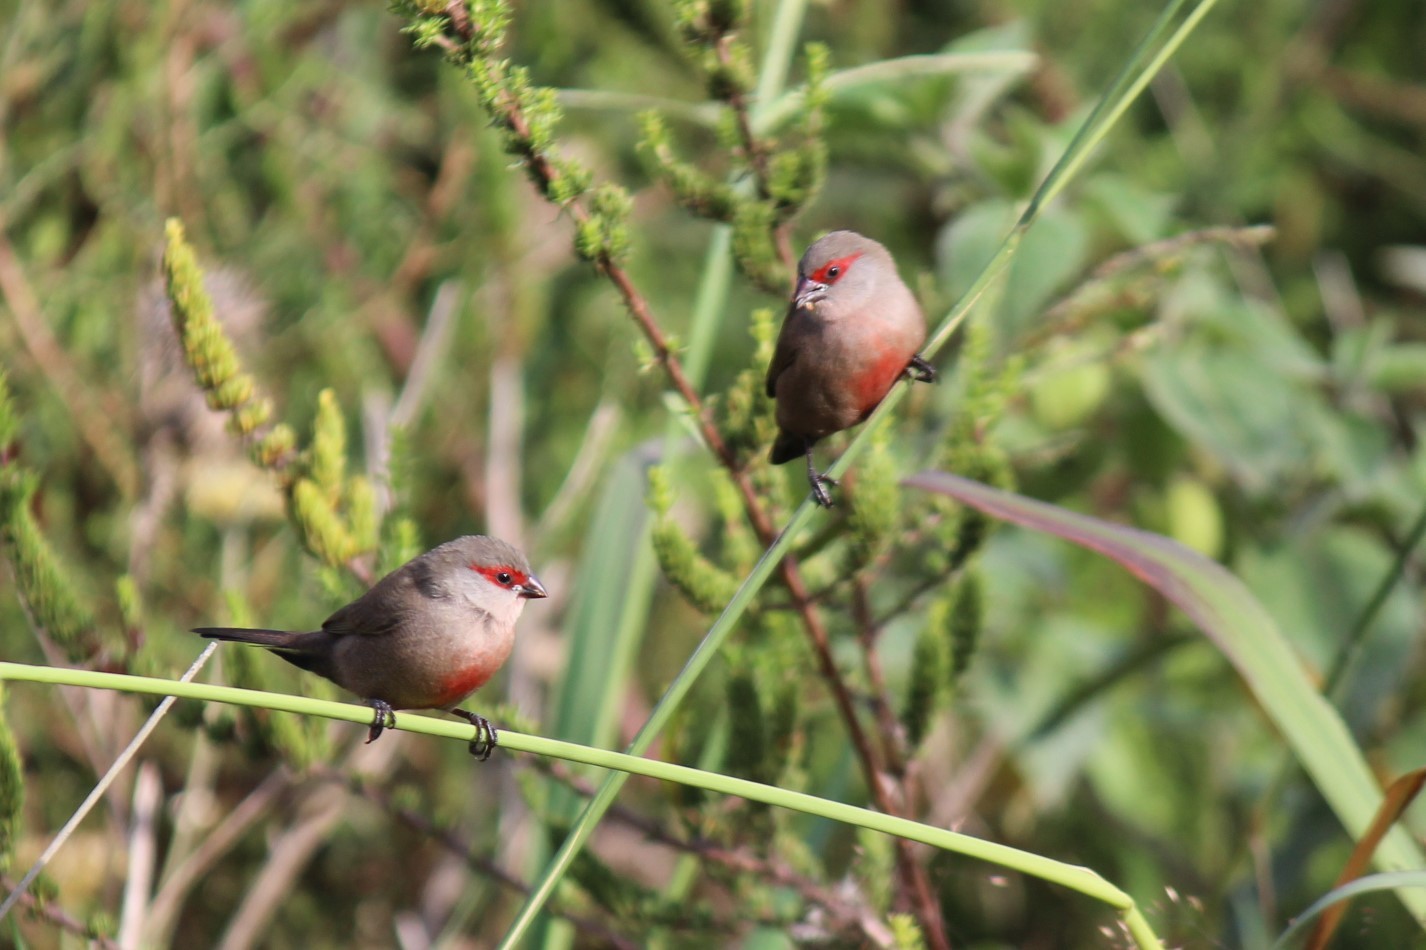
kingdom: Animalia
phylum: Chordata
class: Aves
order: Passeriformes
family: Estrildidae
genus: Estrilda
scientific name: Estrilda astrild
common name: Common waxbill
